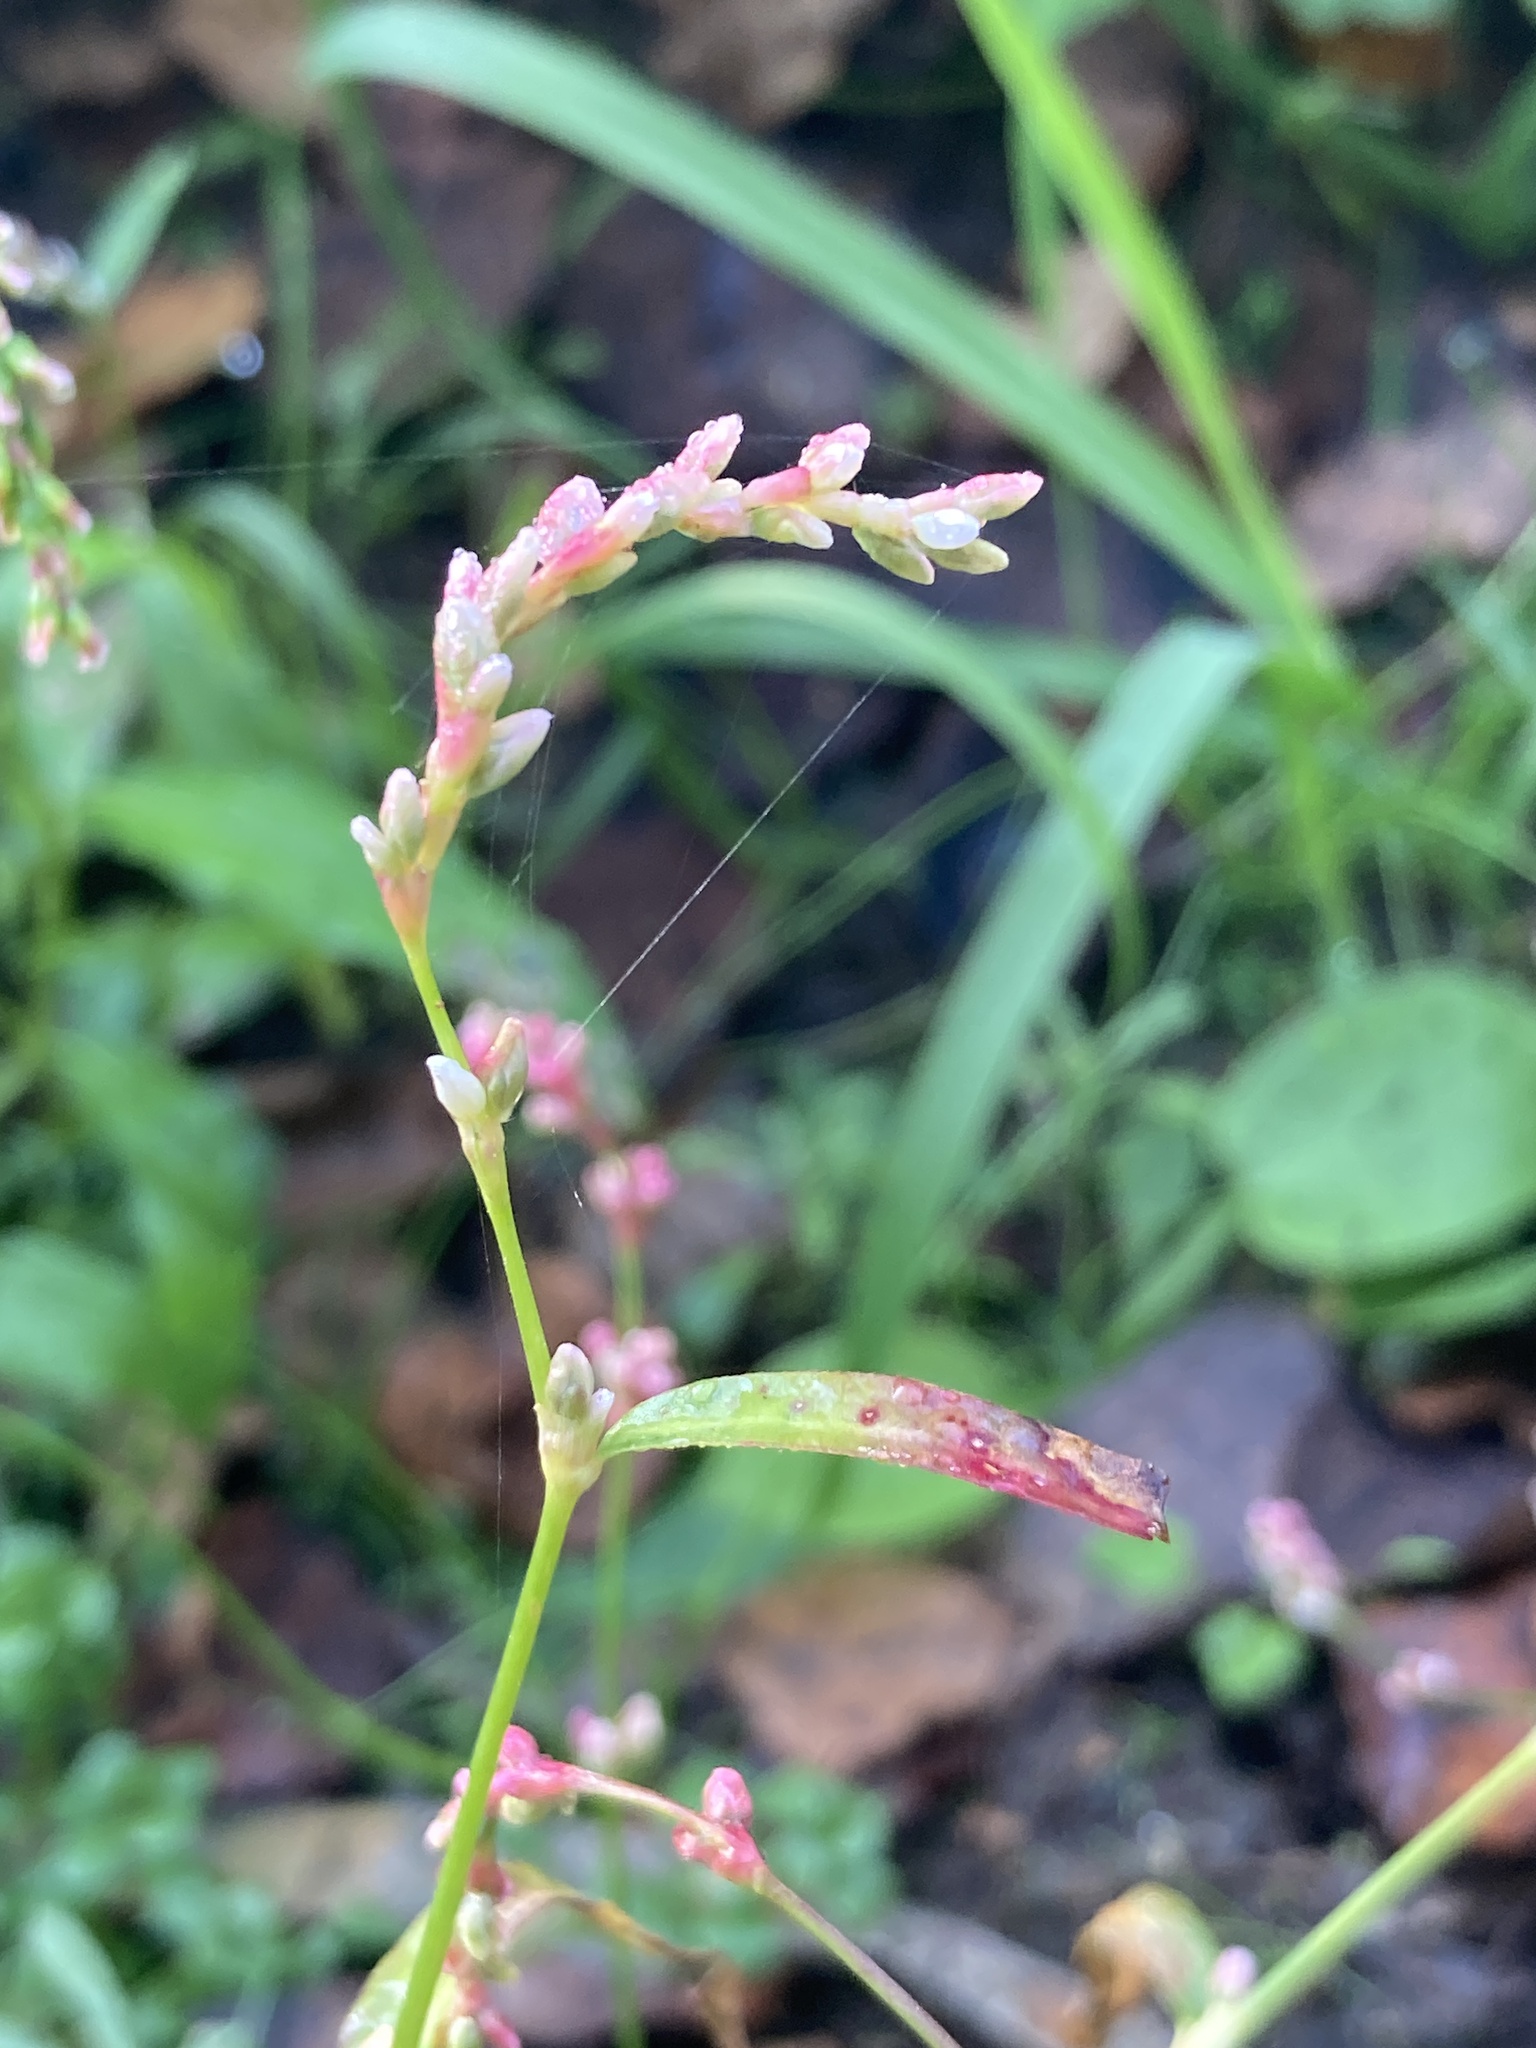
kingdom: Plantae
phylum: Tracheophyta
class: Magnoliopsida
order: Caryophyllales
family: Polygonaceae
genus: Persicaria
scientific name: Persicaria minor
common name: Small water-pepper
